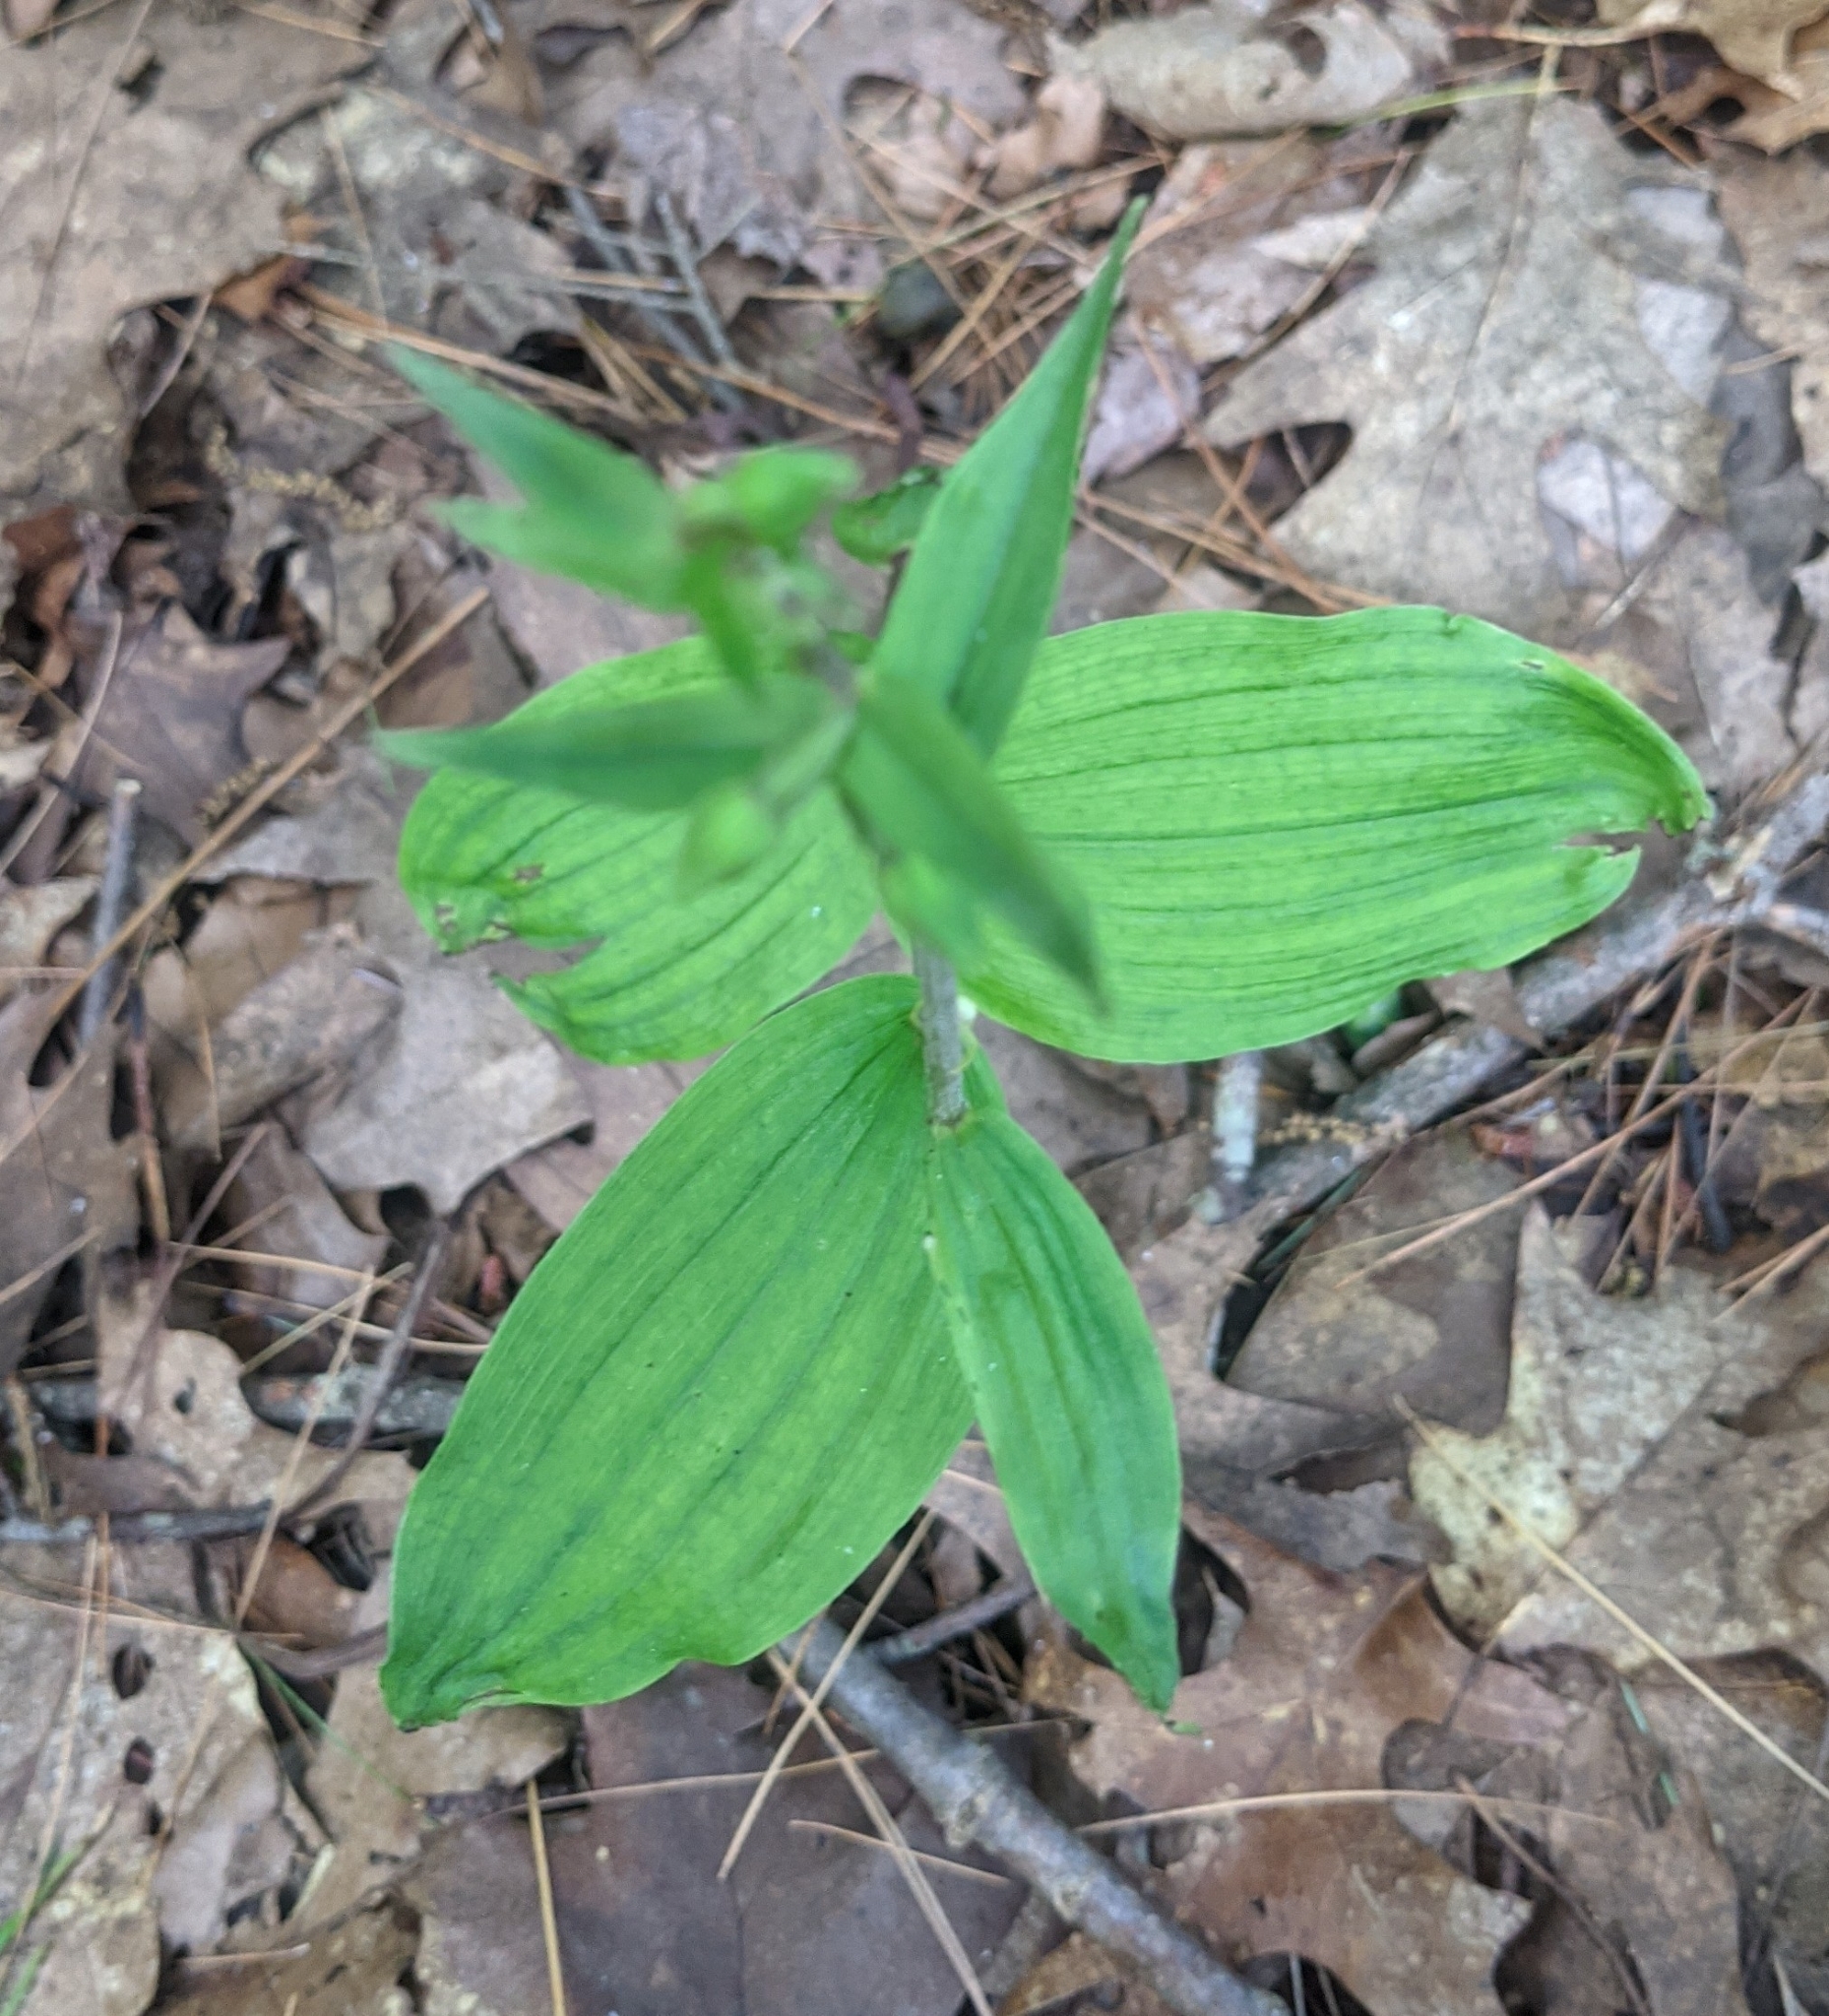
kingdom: Plantae
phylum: Tracheophyta
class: Liliopsida
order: Asparagales
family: Orchidaceae
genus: Epipactis
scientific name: Epipactis helleborine
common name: Broad-leaved helleborine
